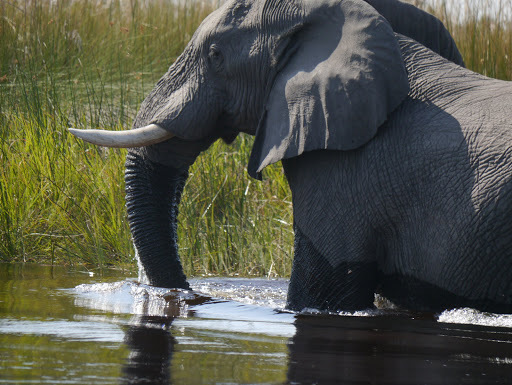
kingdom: Animalia
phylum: Chordata
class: Mammalia
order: Proboscidea
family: Elephantidae
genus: Loxodonta
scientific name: Loxodonta africana
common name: African elephant
